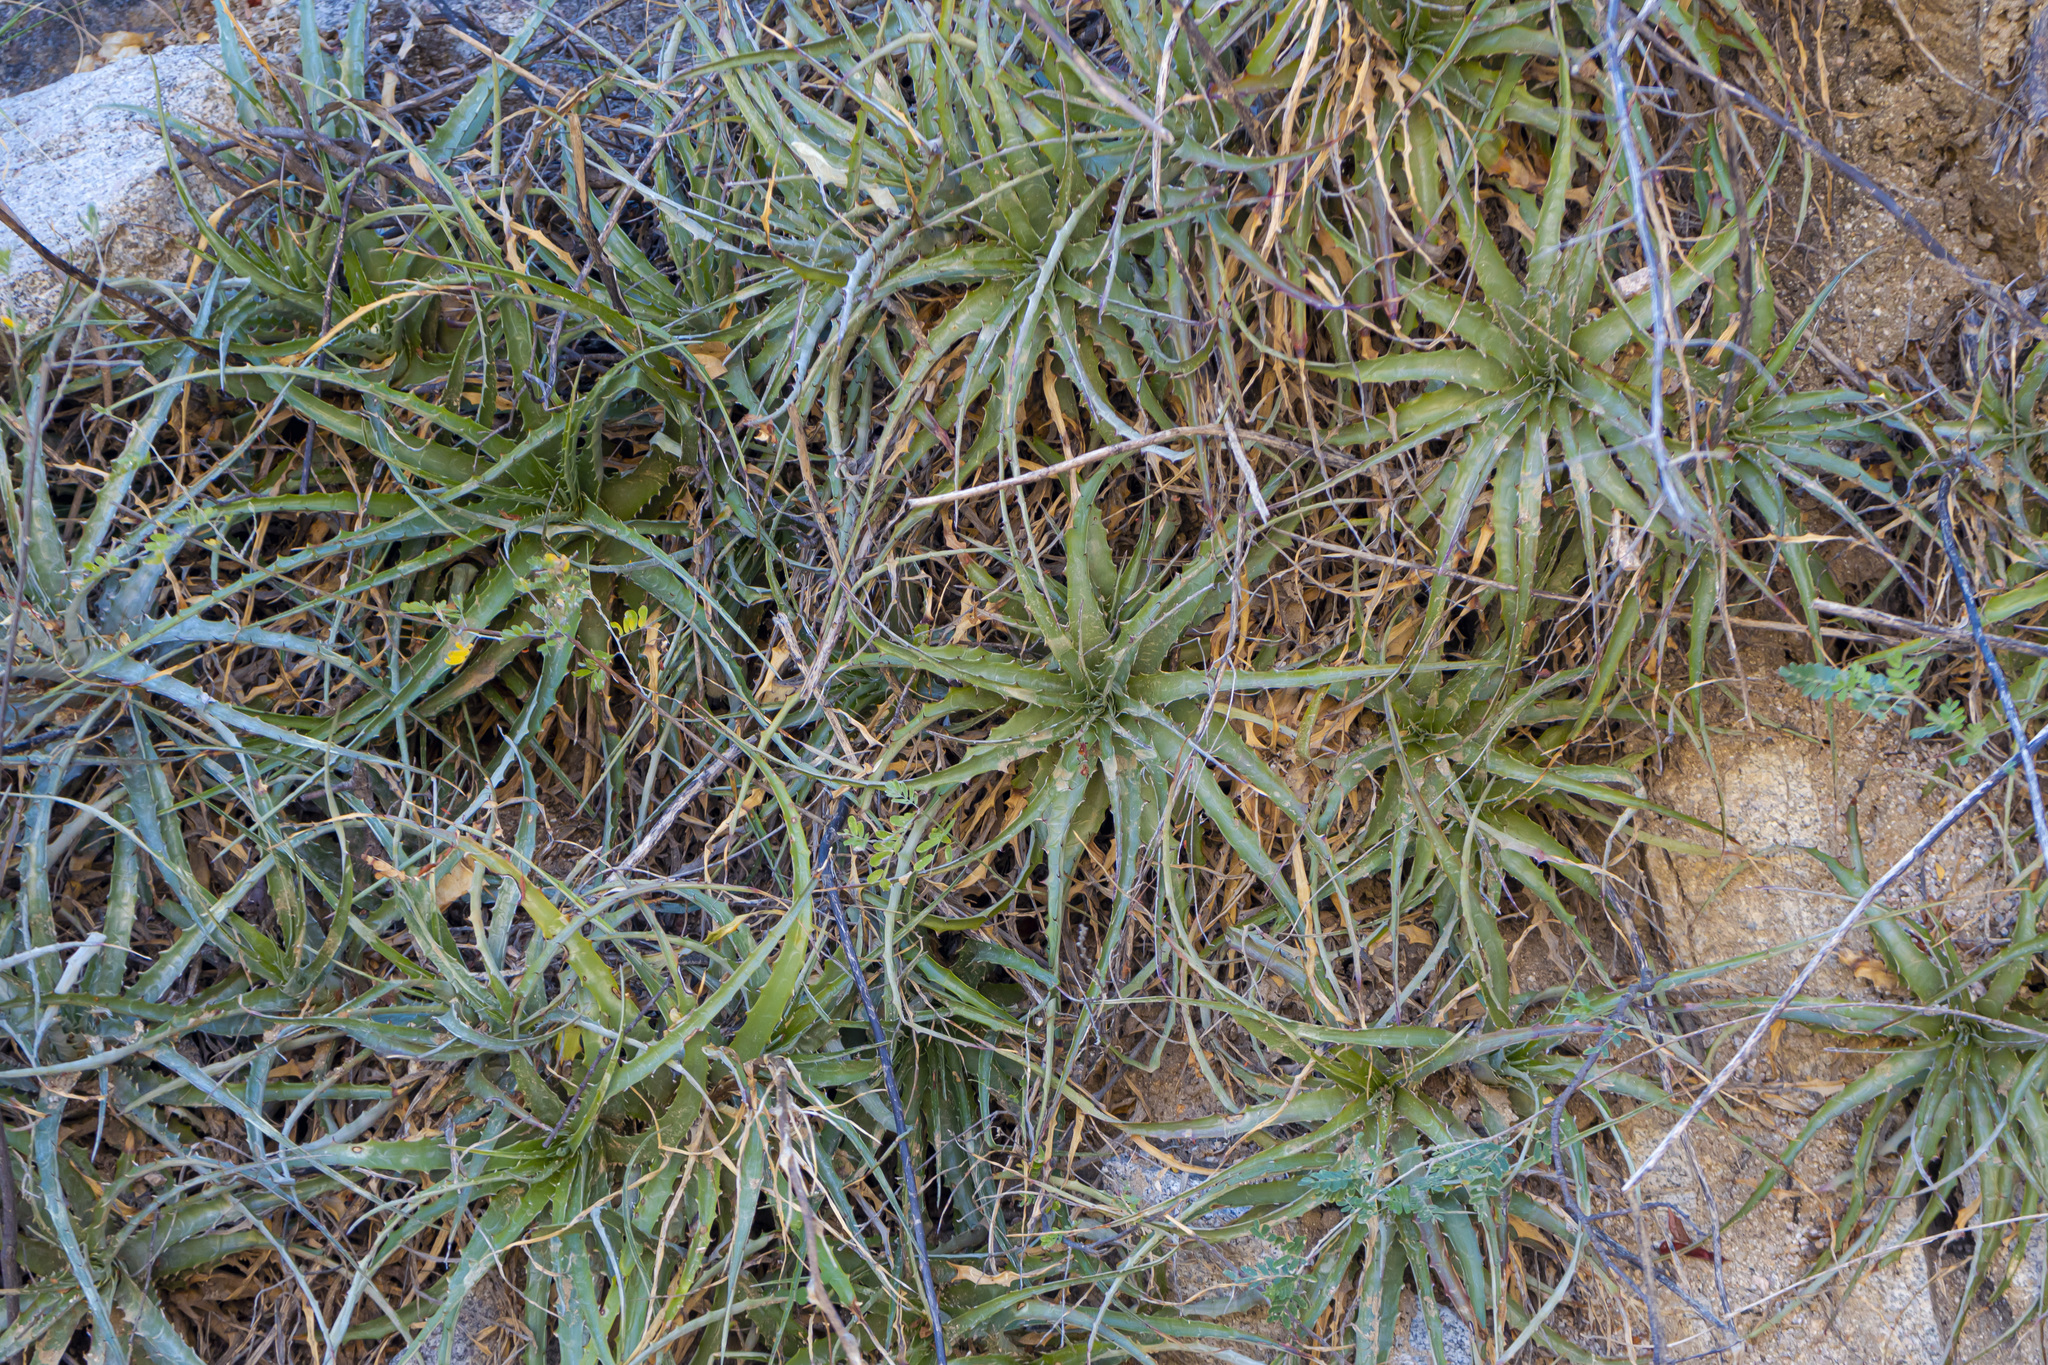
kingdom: Plantae
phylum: Tracheophyta
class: Liliopsida
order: Poales
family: Bromeliaceae
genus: Hechtia
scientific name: Hechtia montana
